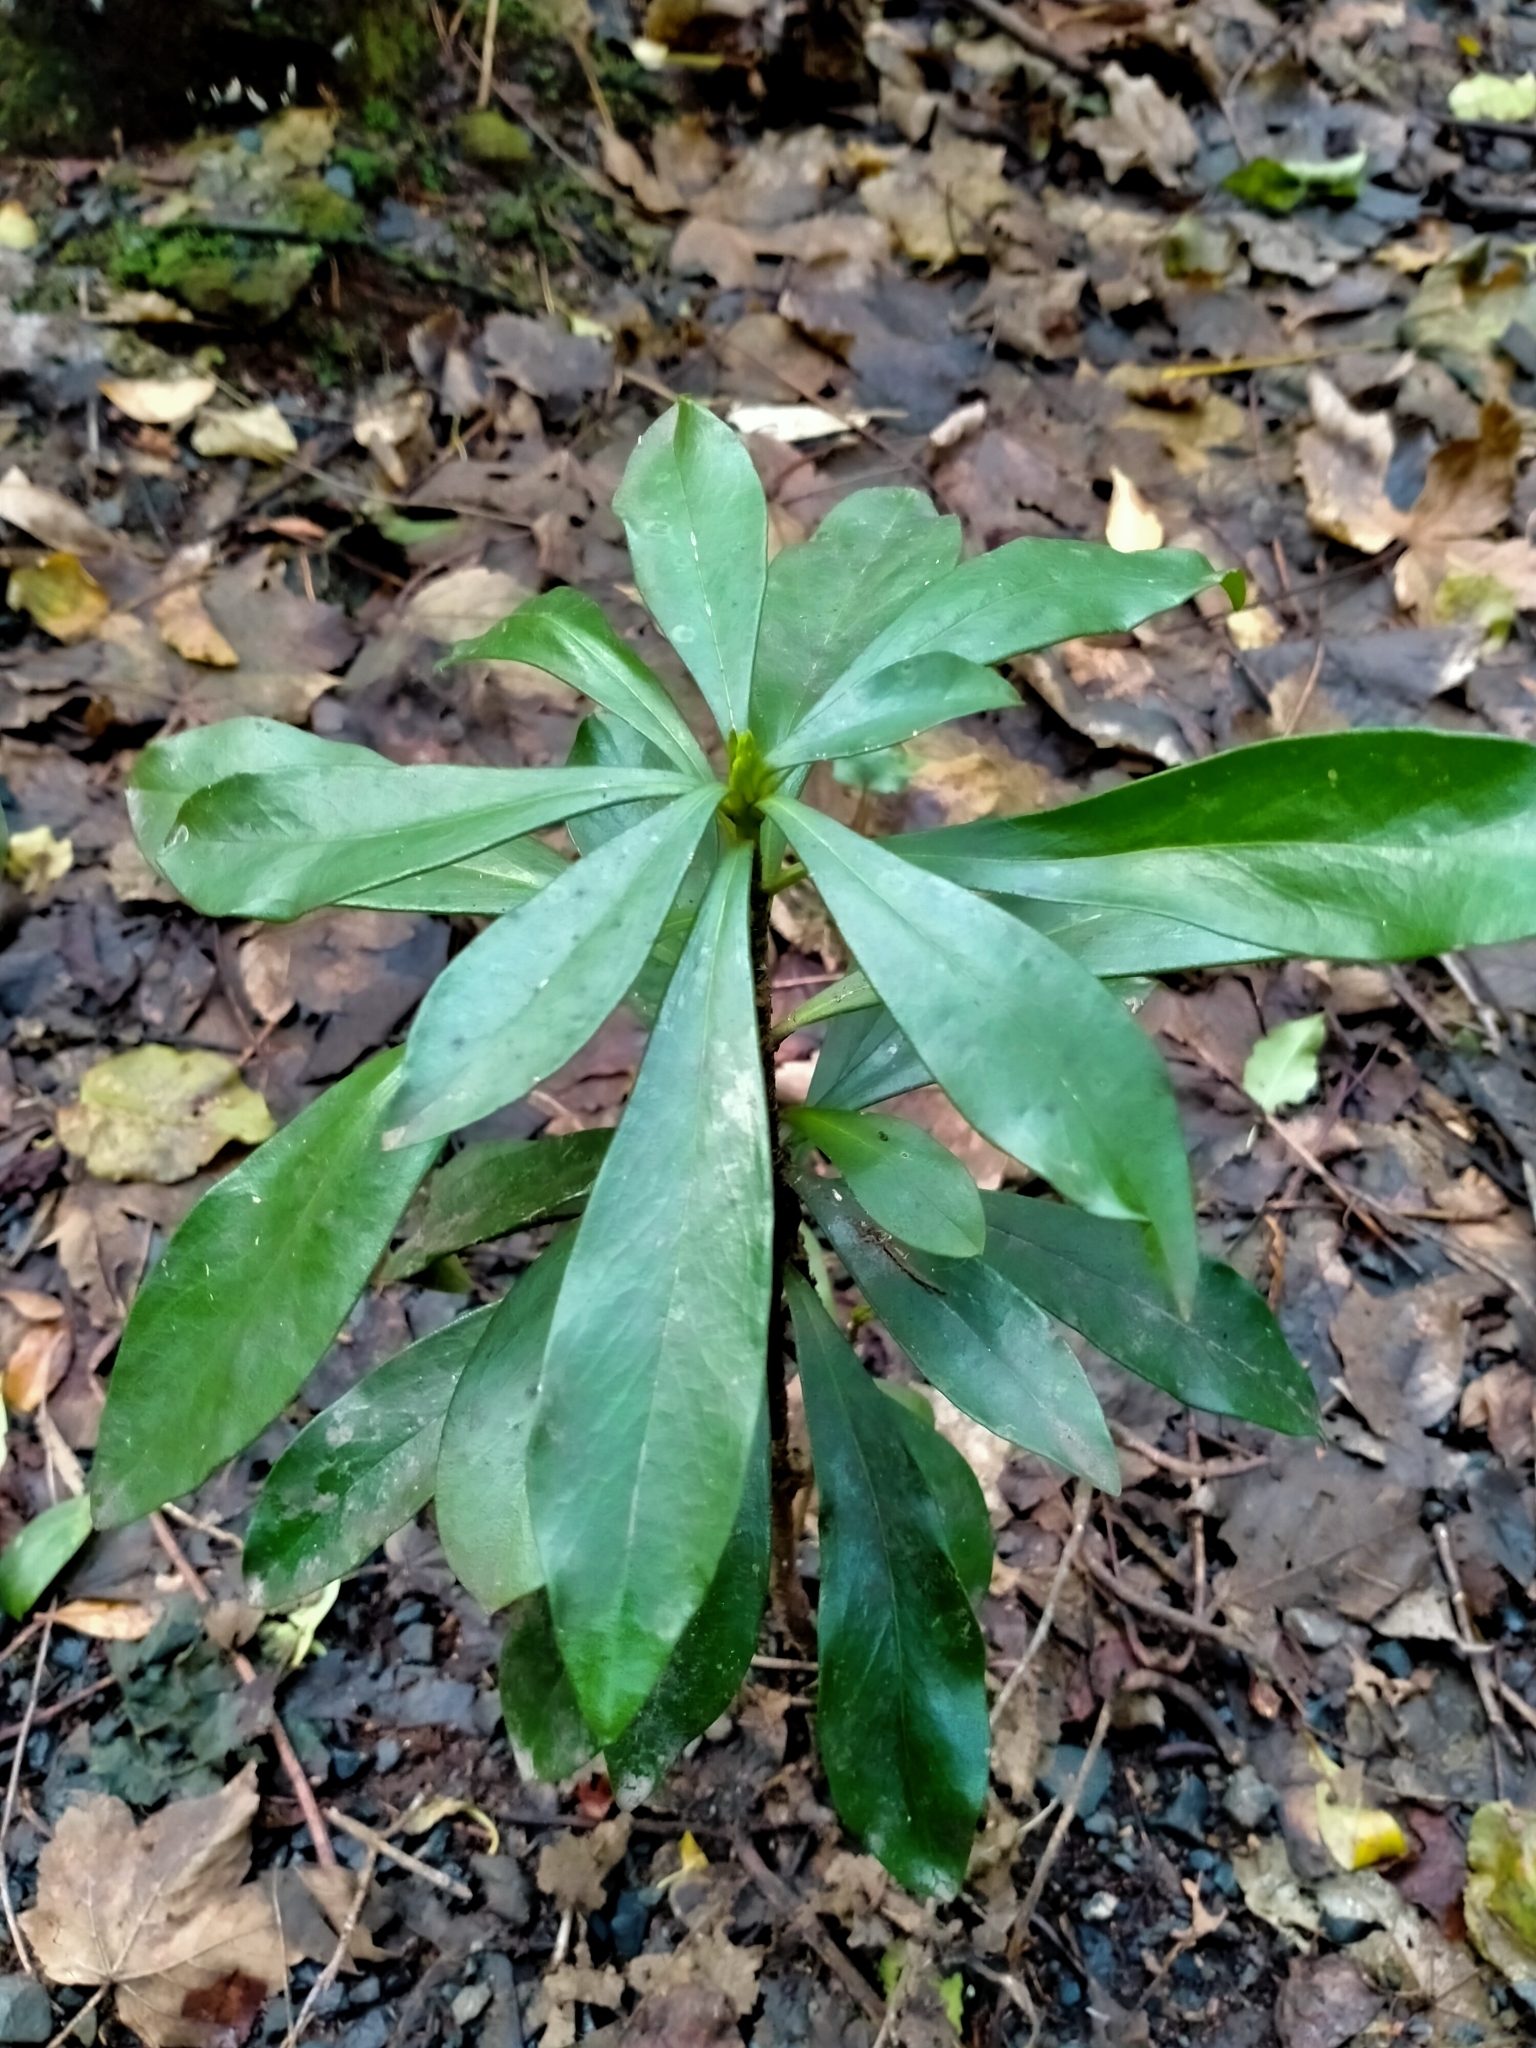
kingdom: Plantae
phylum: Tracheophyta
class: Magnoliopsida
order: Malvales
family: Thymelaeaceae
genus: Daphne
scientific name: Daphne laureola
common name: Spurge-laurel
